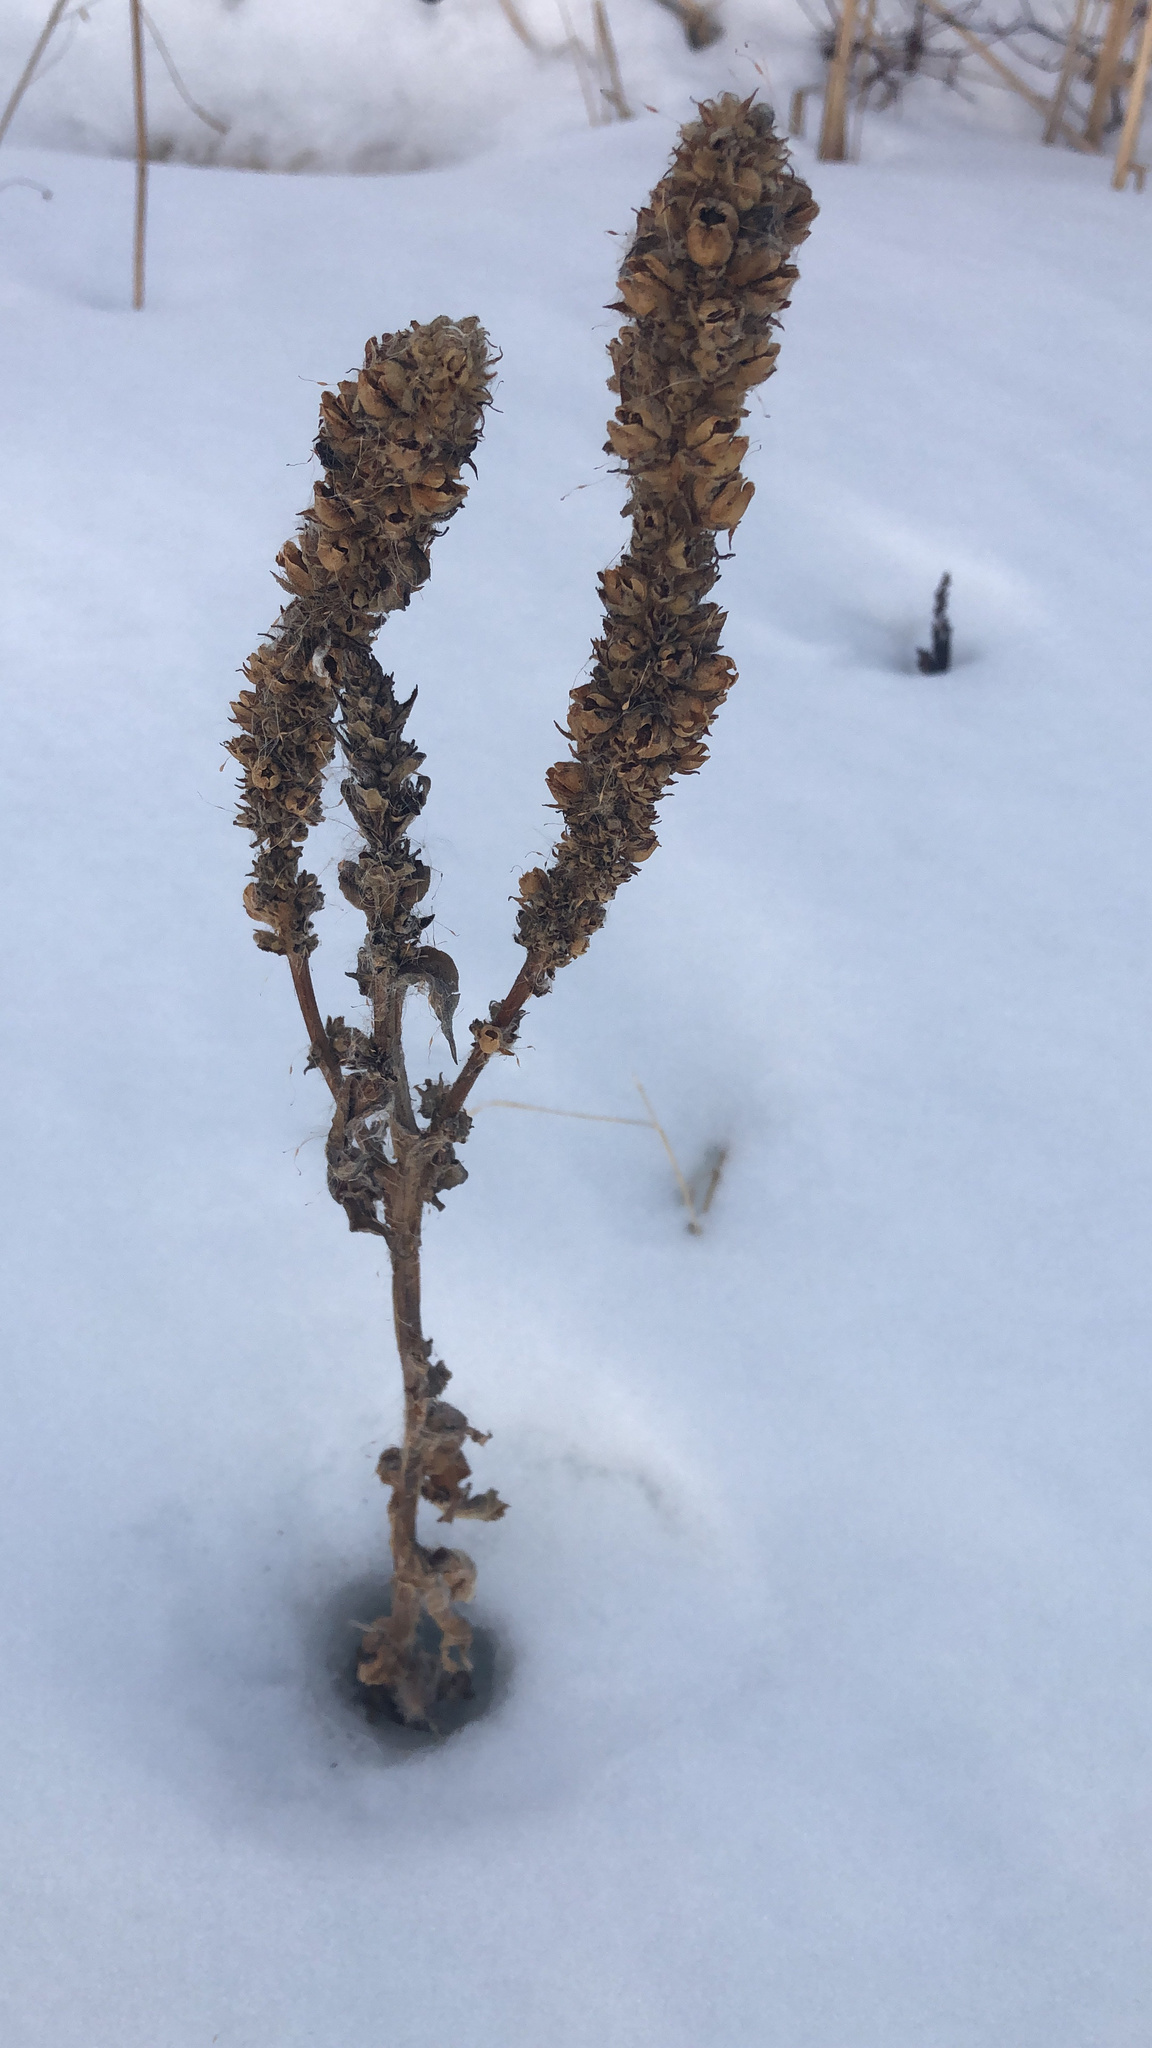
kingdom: Plantae
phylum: Tracheophyta
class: Magnoliopsida
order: Lamiales
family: Scrophulariaceae
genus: Verbascum
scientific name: Verbascum thapsus
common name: Common mullein
